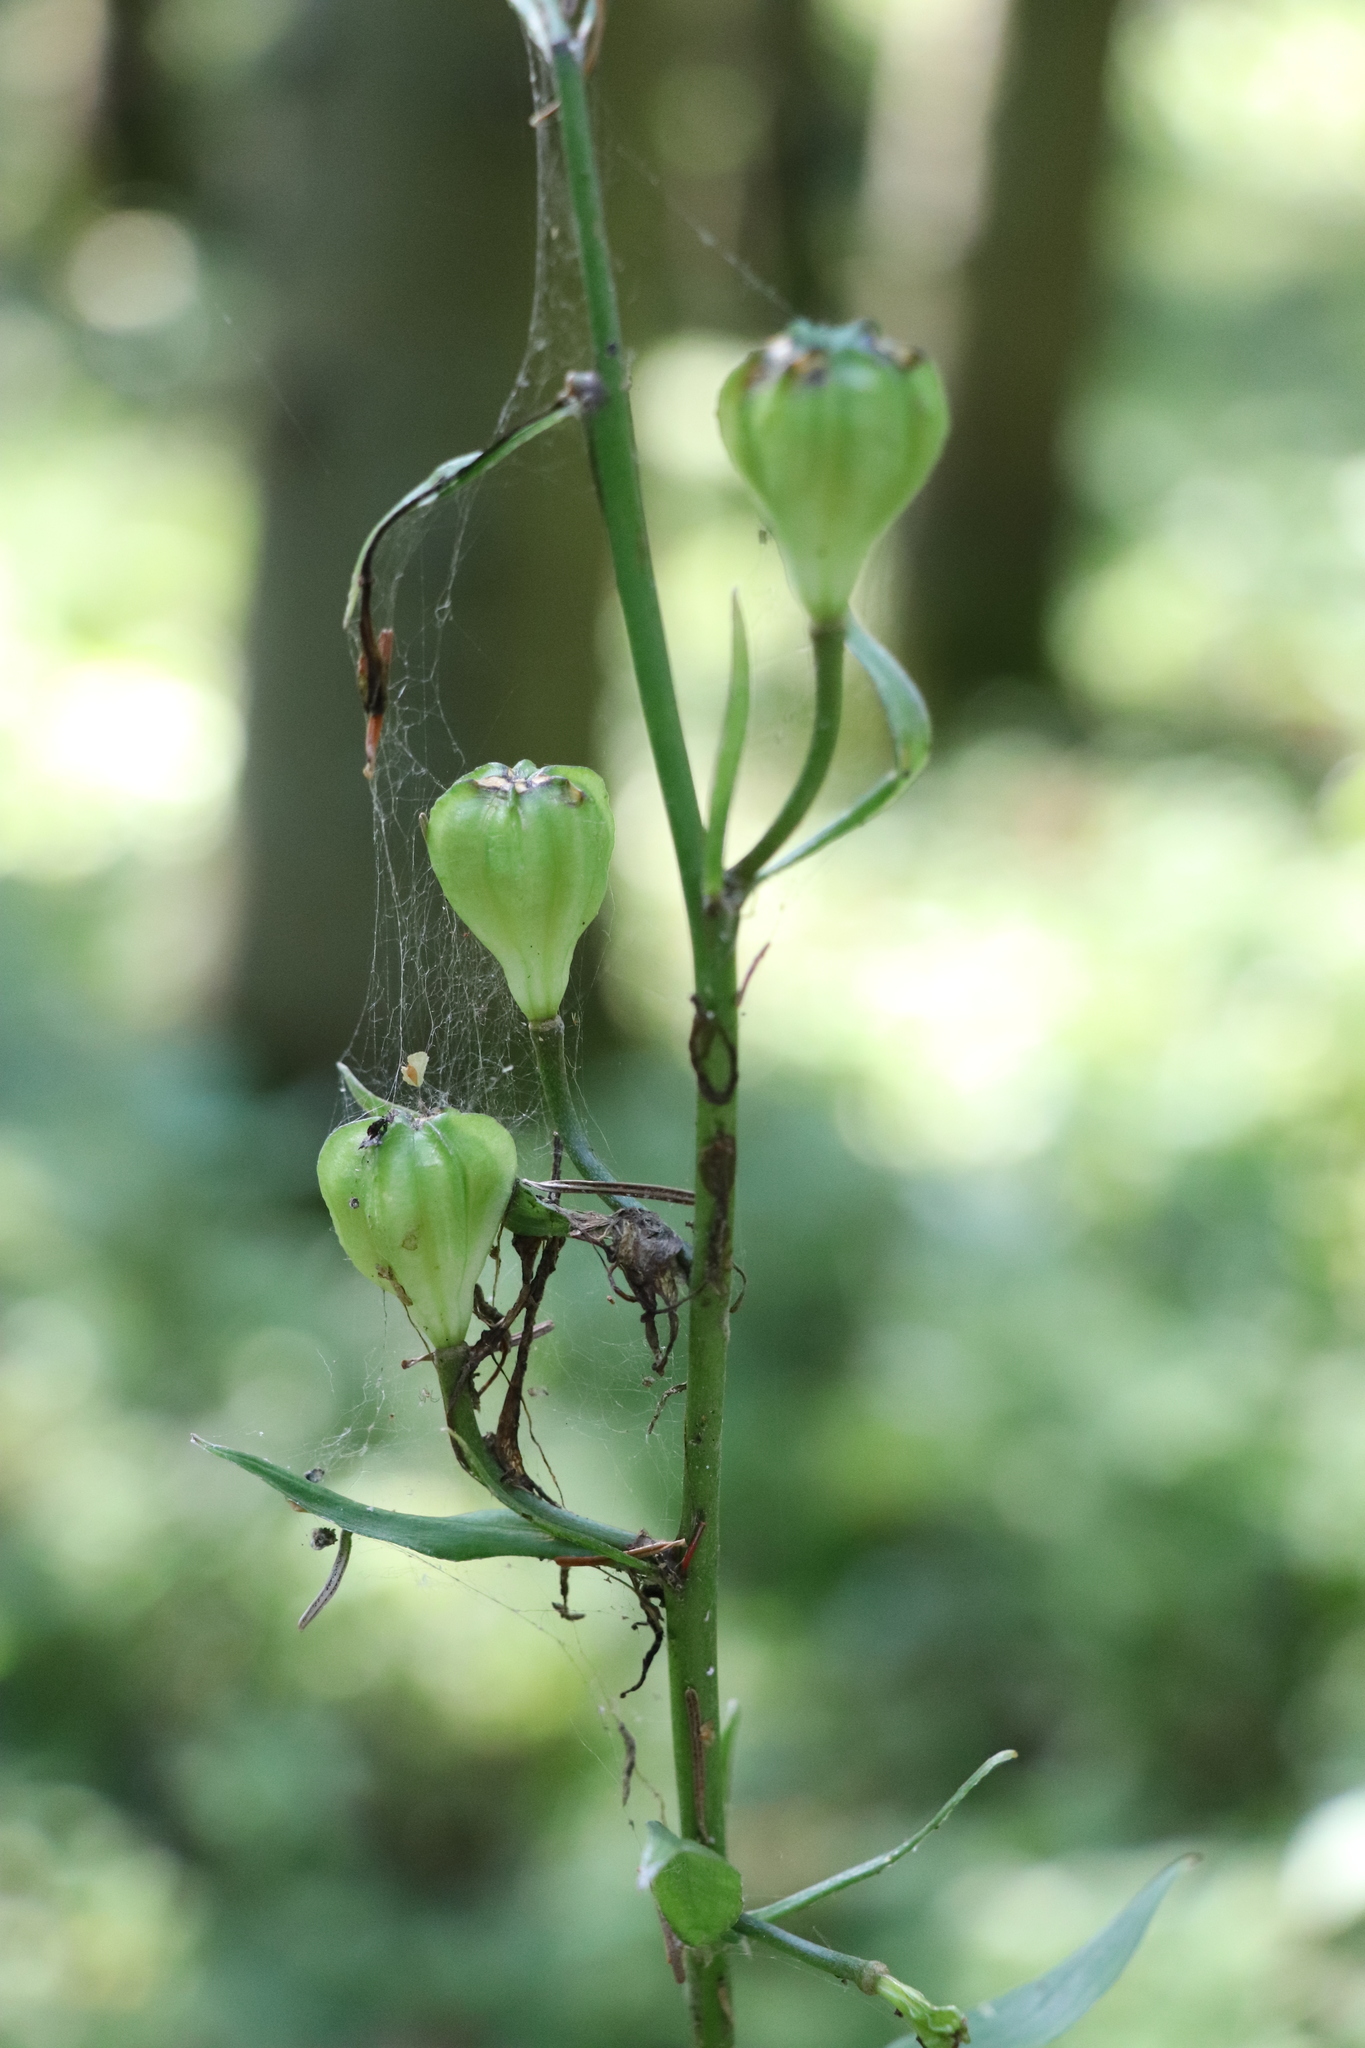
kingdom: Plantae
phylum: Tracheophyta
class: Liliopsida
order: Liliales
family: Liliaceae
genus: Lilium
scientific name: Lilium martagon
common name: Martagon lily
